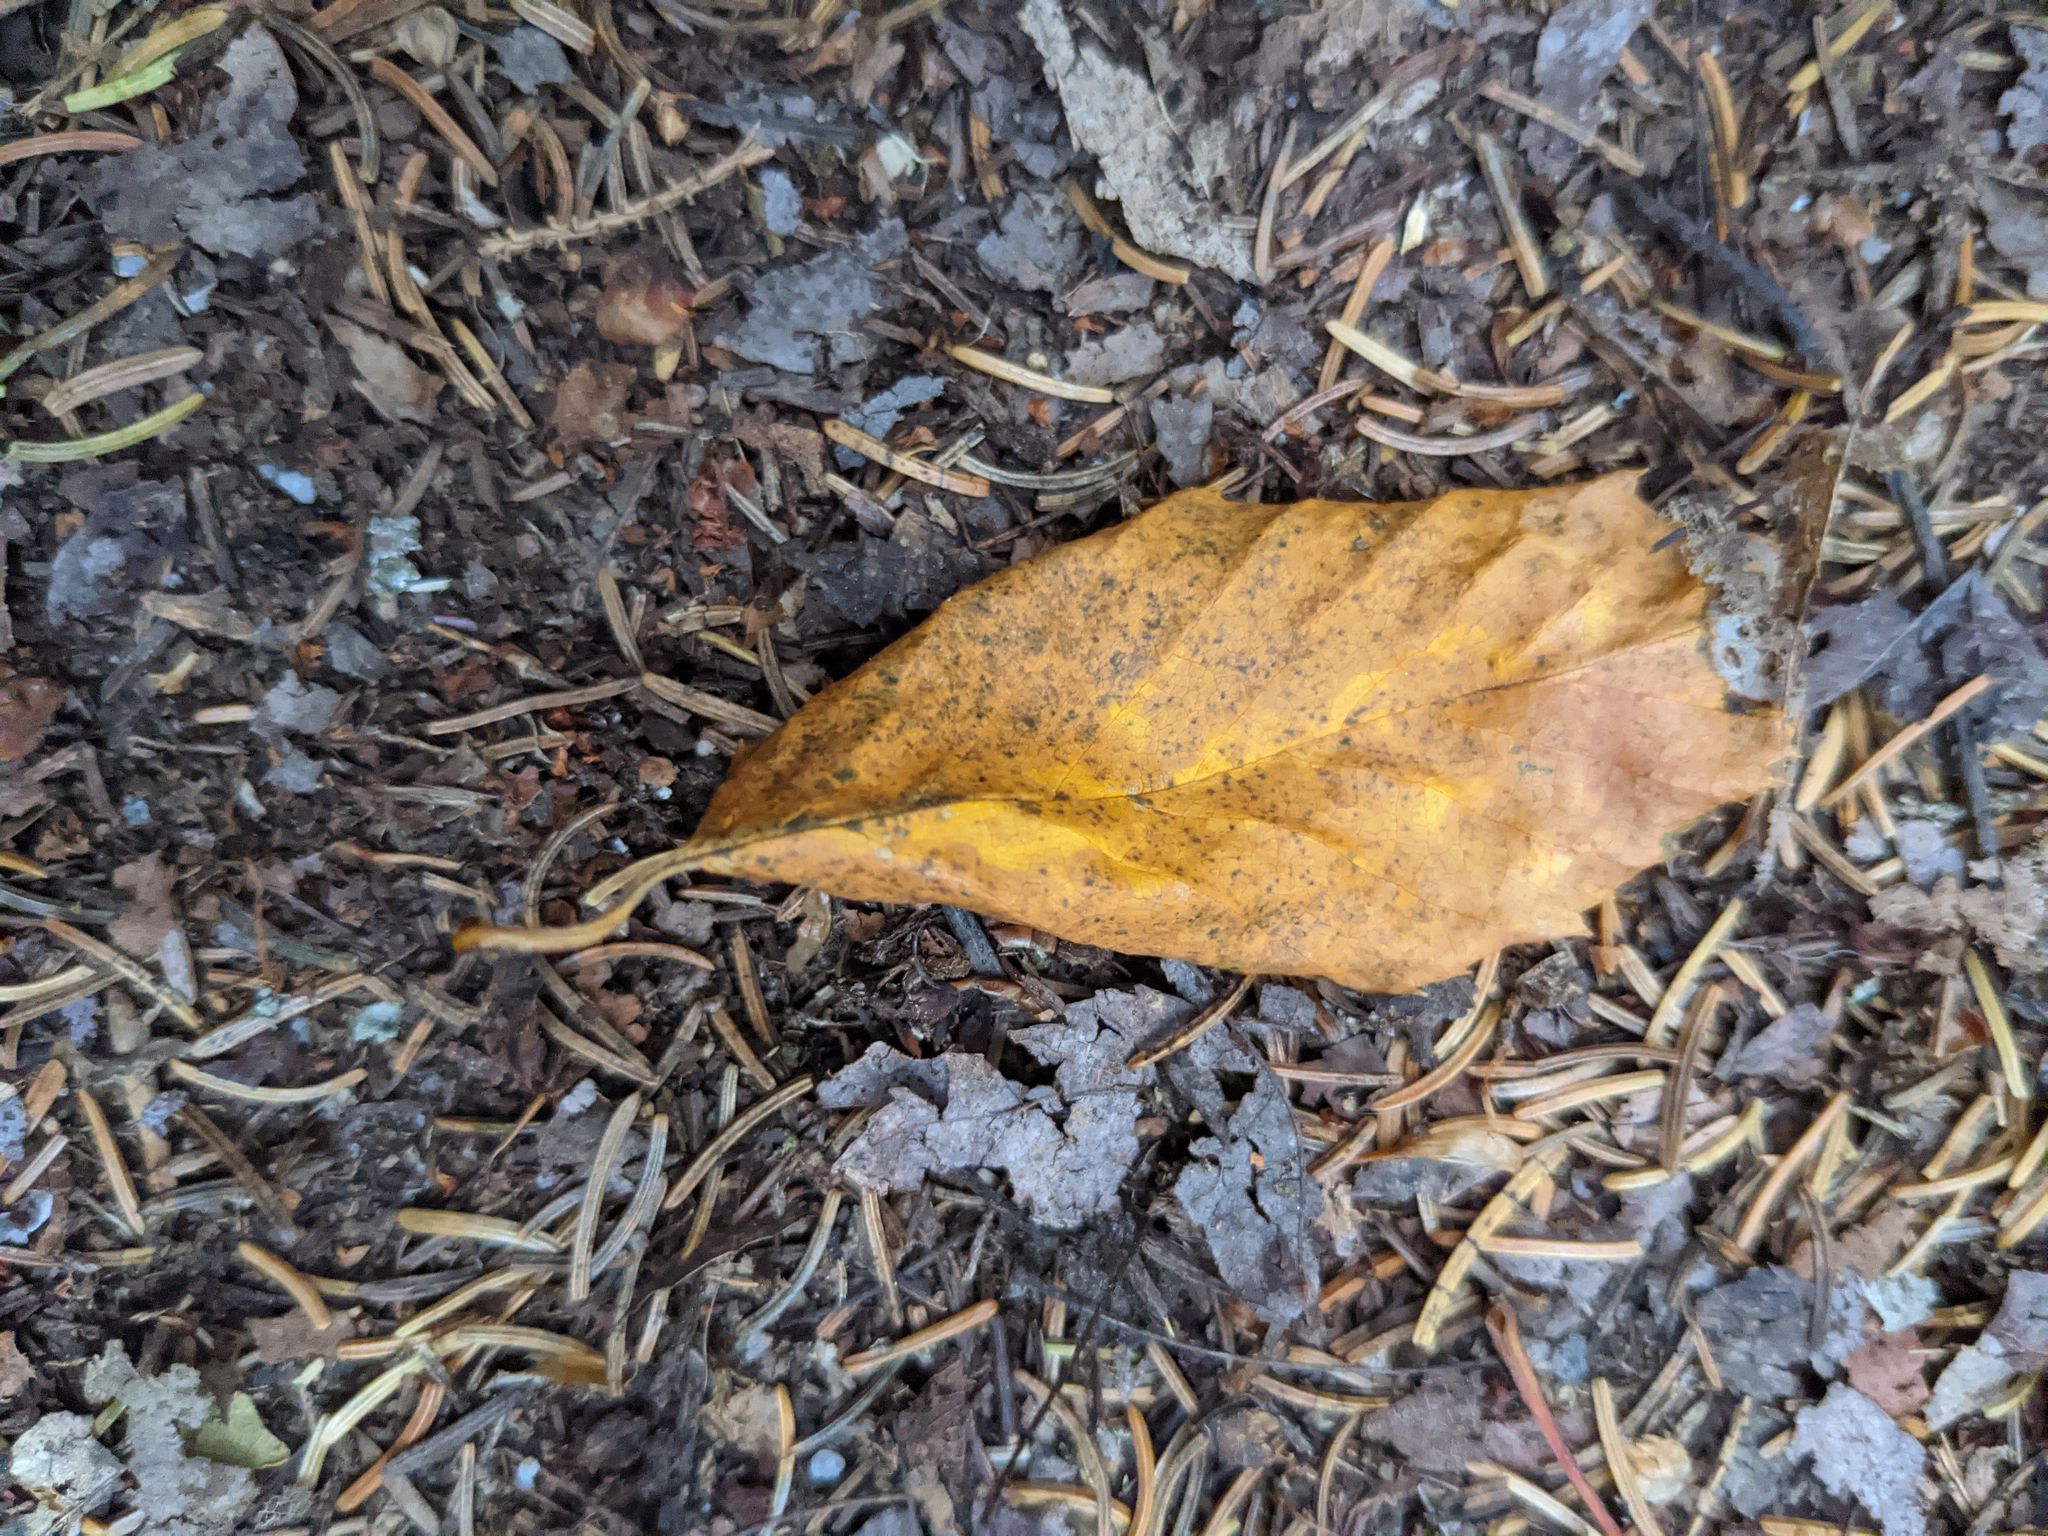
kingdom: Plantae
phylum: Tracheophyta
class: Magnoliopsida
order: Fagales
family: Fagaceae
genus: Fagus
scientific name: Fagus grandifolia
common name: American beech
